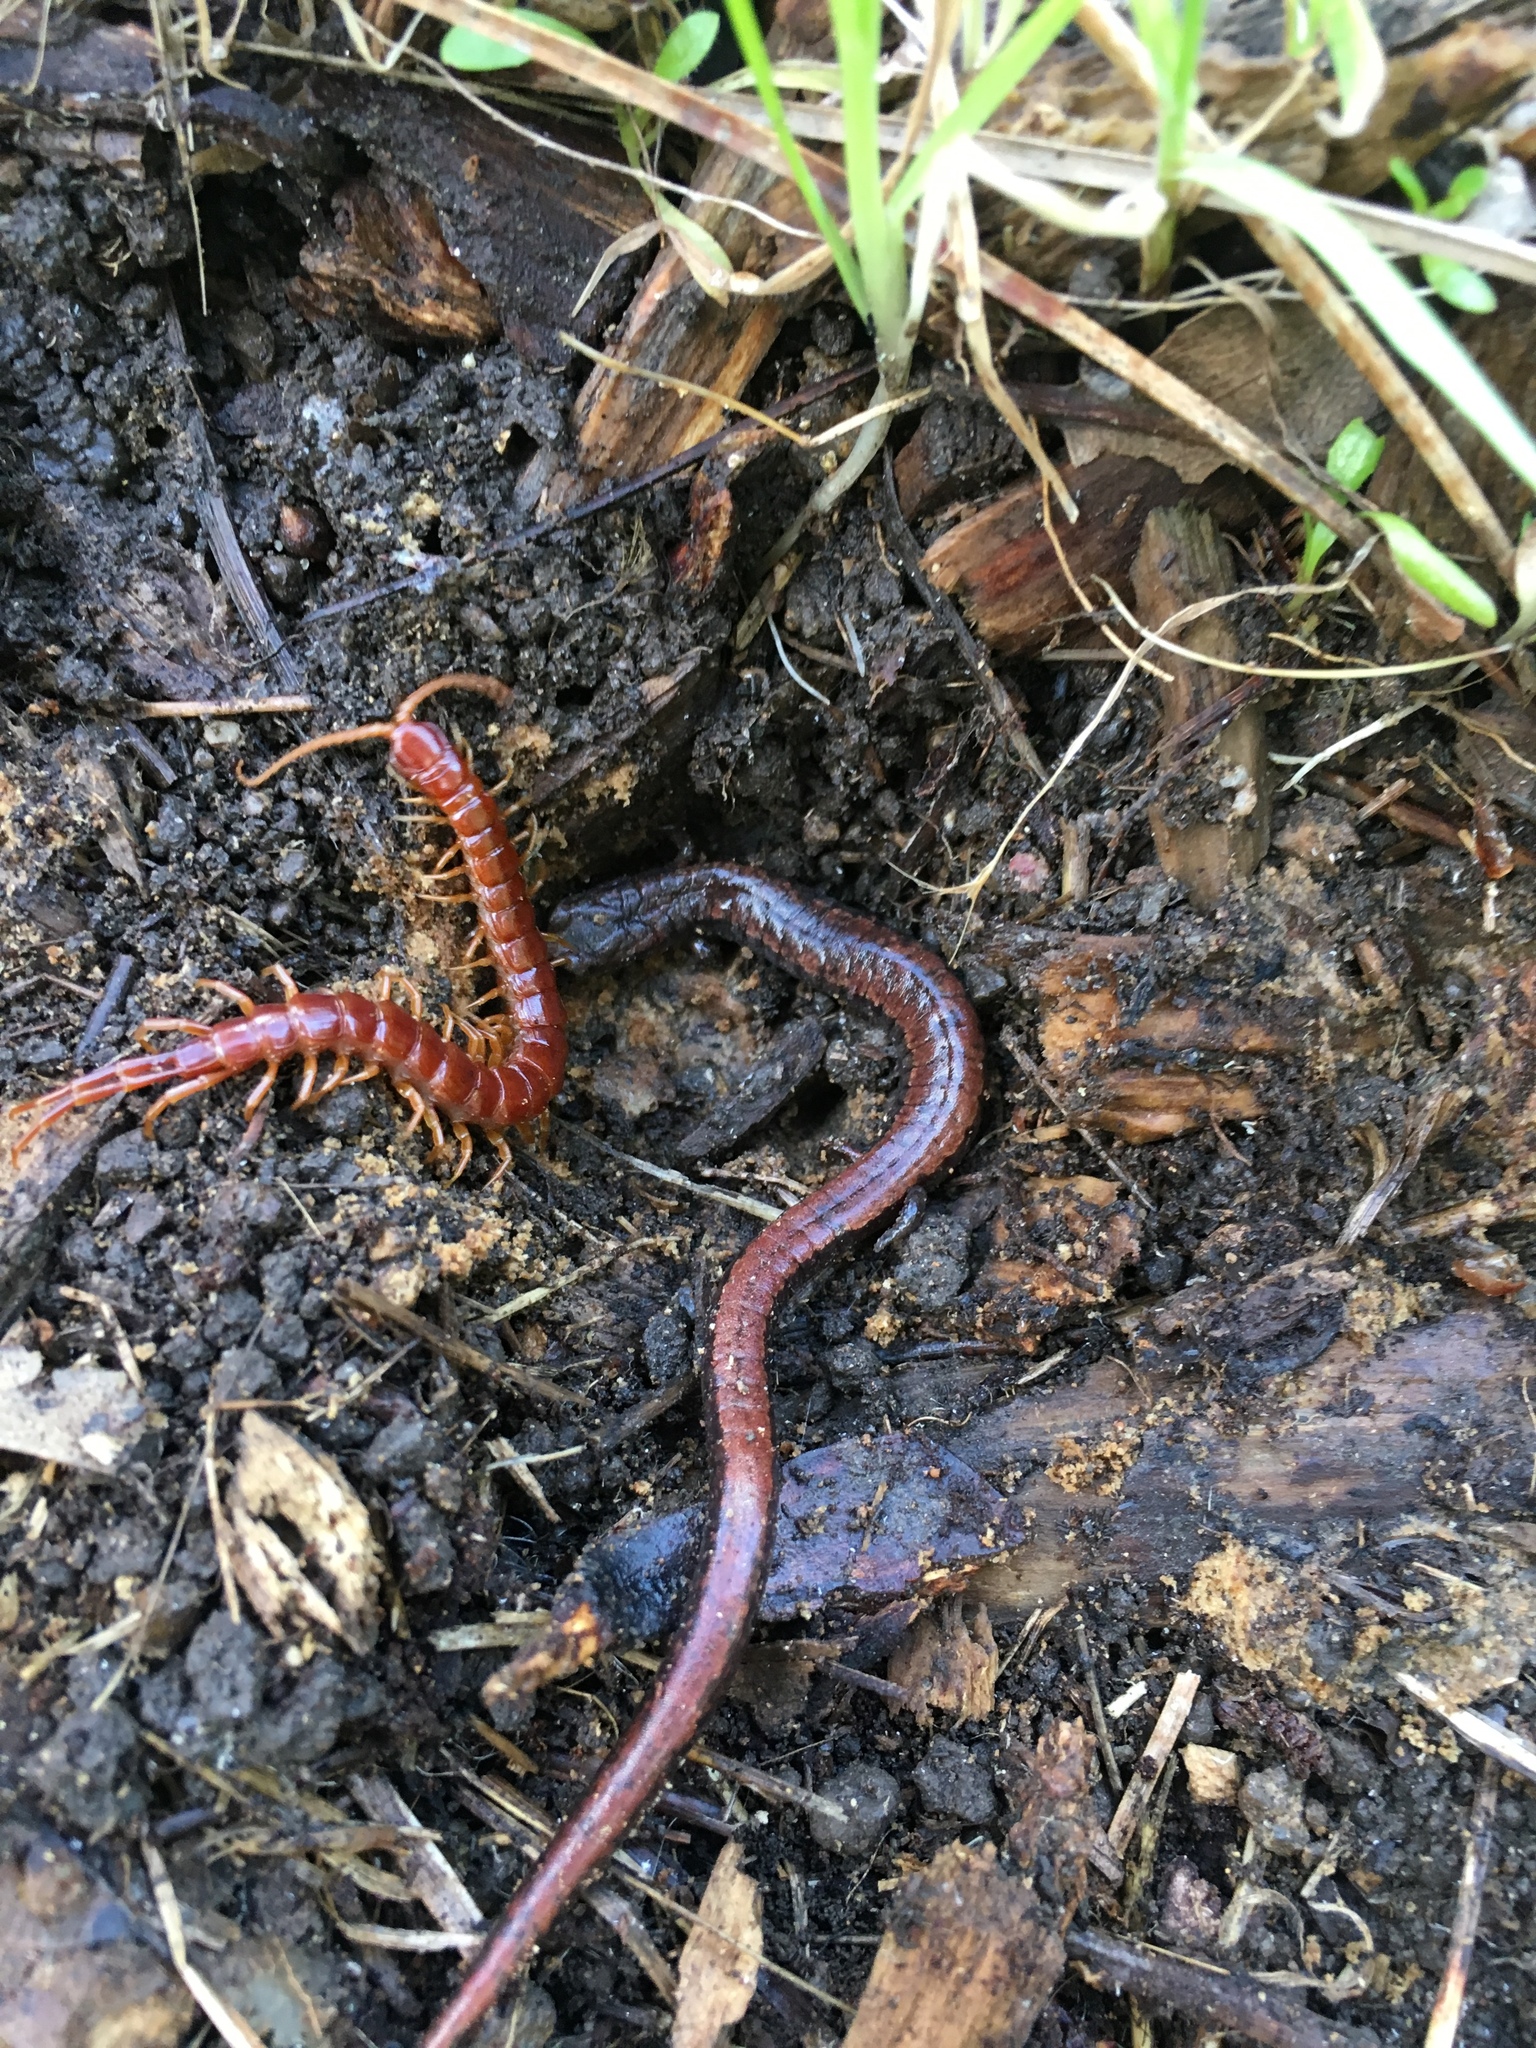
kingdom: Animalia
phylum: Chordata
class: Amphibia
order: Caudata
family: Plethodontidae
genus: Batrachoseps
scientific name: Batrachoseps attenuatus
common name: California slender salamander
